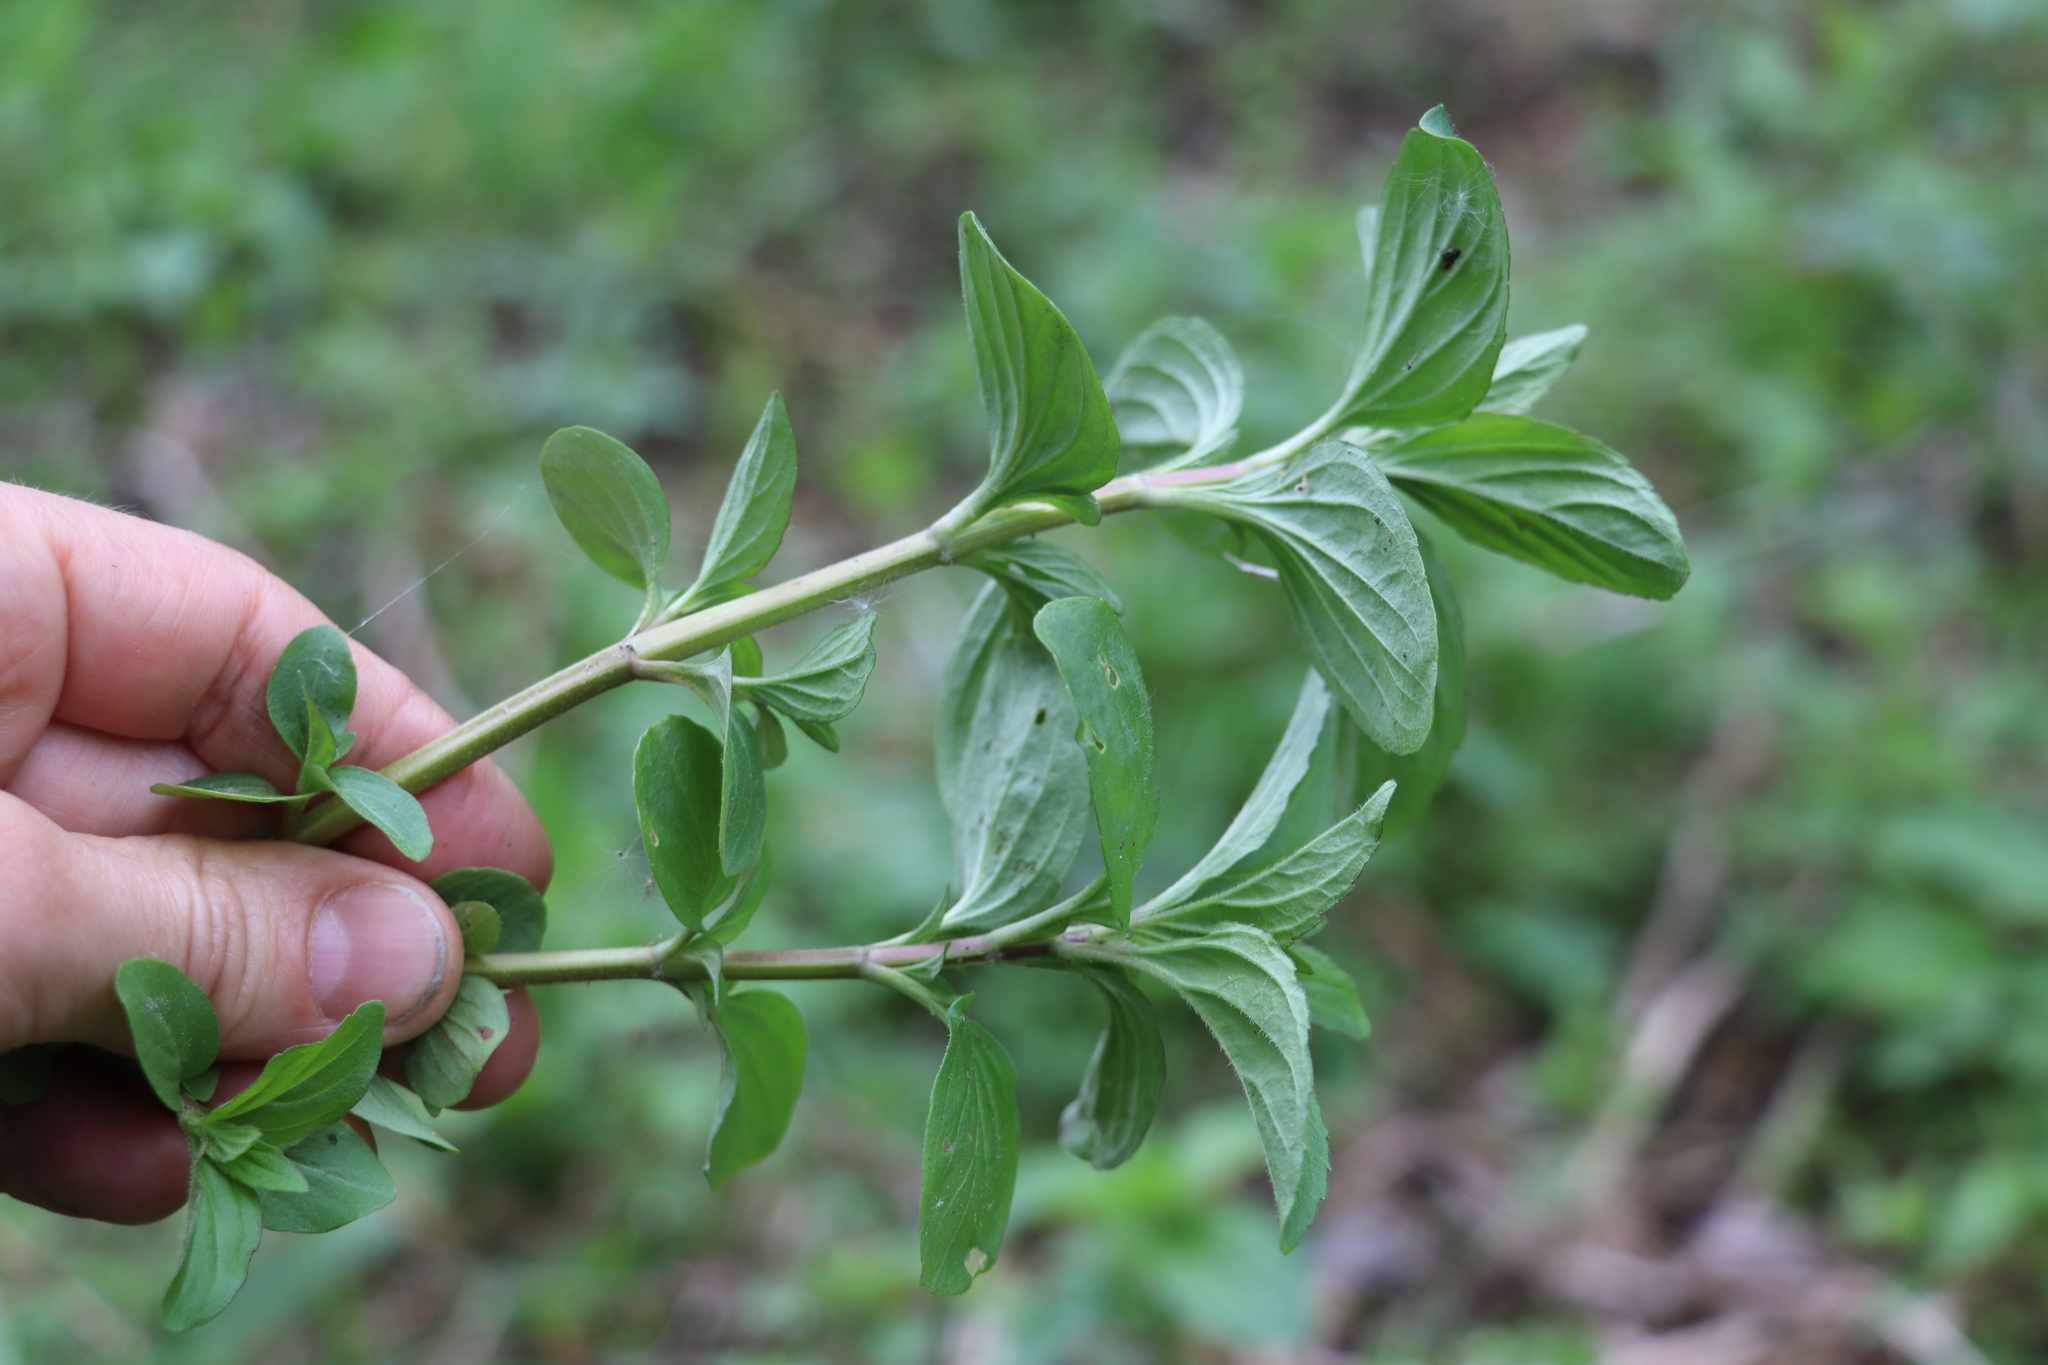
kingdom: Plantae
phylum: Tracheophyta
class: Magnoliopsida
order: Lamiales
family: Lamiaceae
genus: Mentha
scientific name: Mentha arvensis
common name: Corn mint
